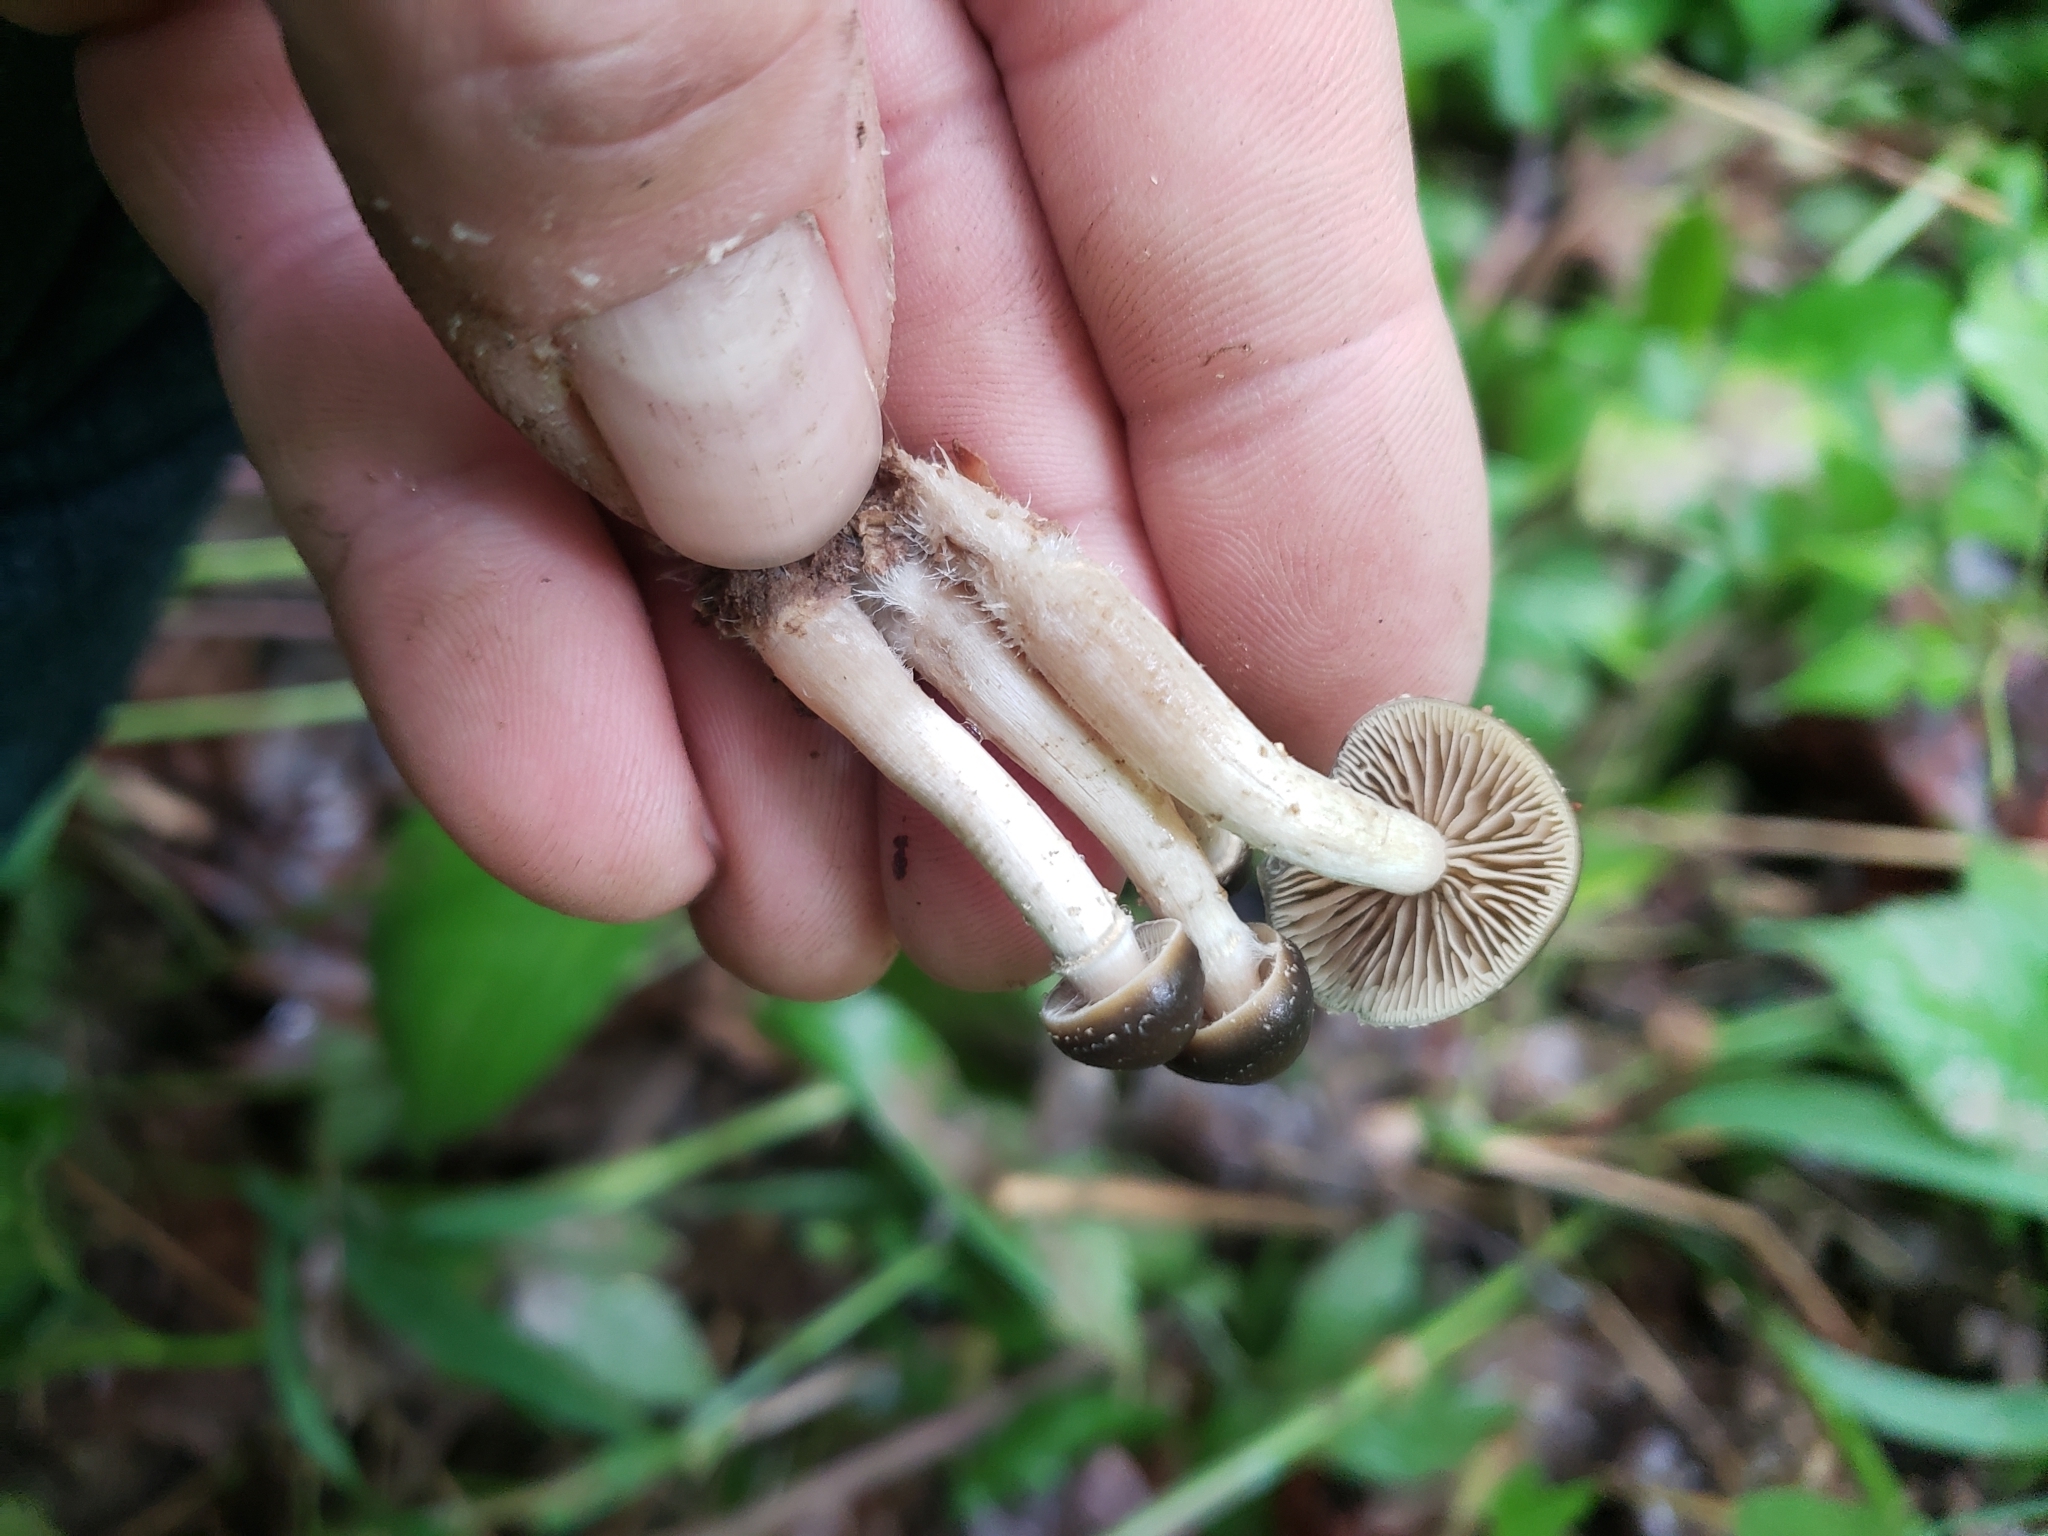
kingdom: Fungi
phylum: Basidiomycota
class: Agaricomycetes
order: Agaricales
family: Hymenogastraceae
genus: Psilocybe
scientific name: Psilocybe ovoideocystidiata
